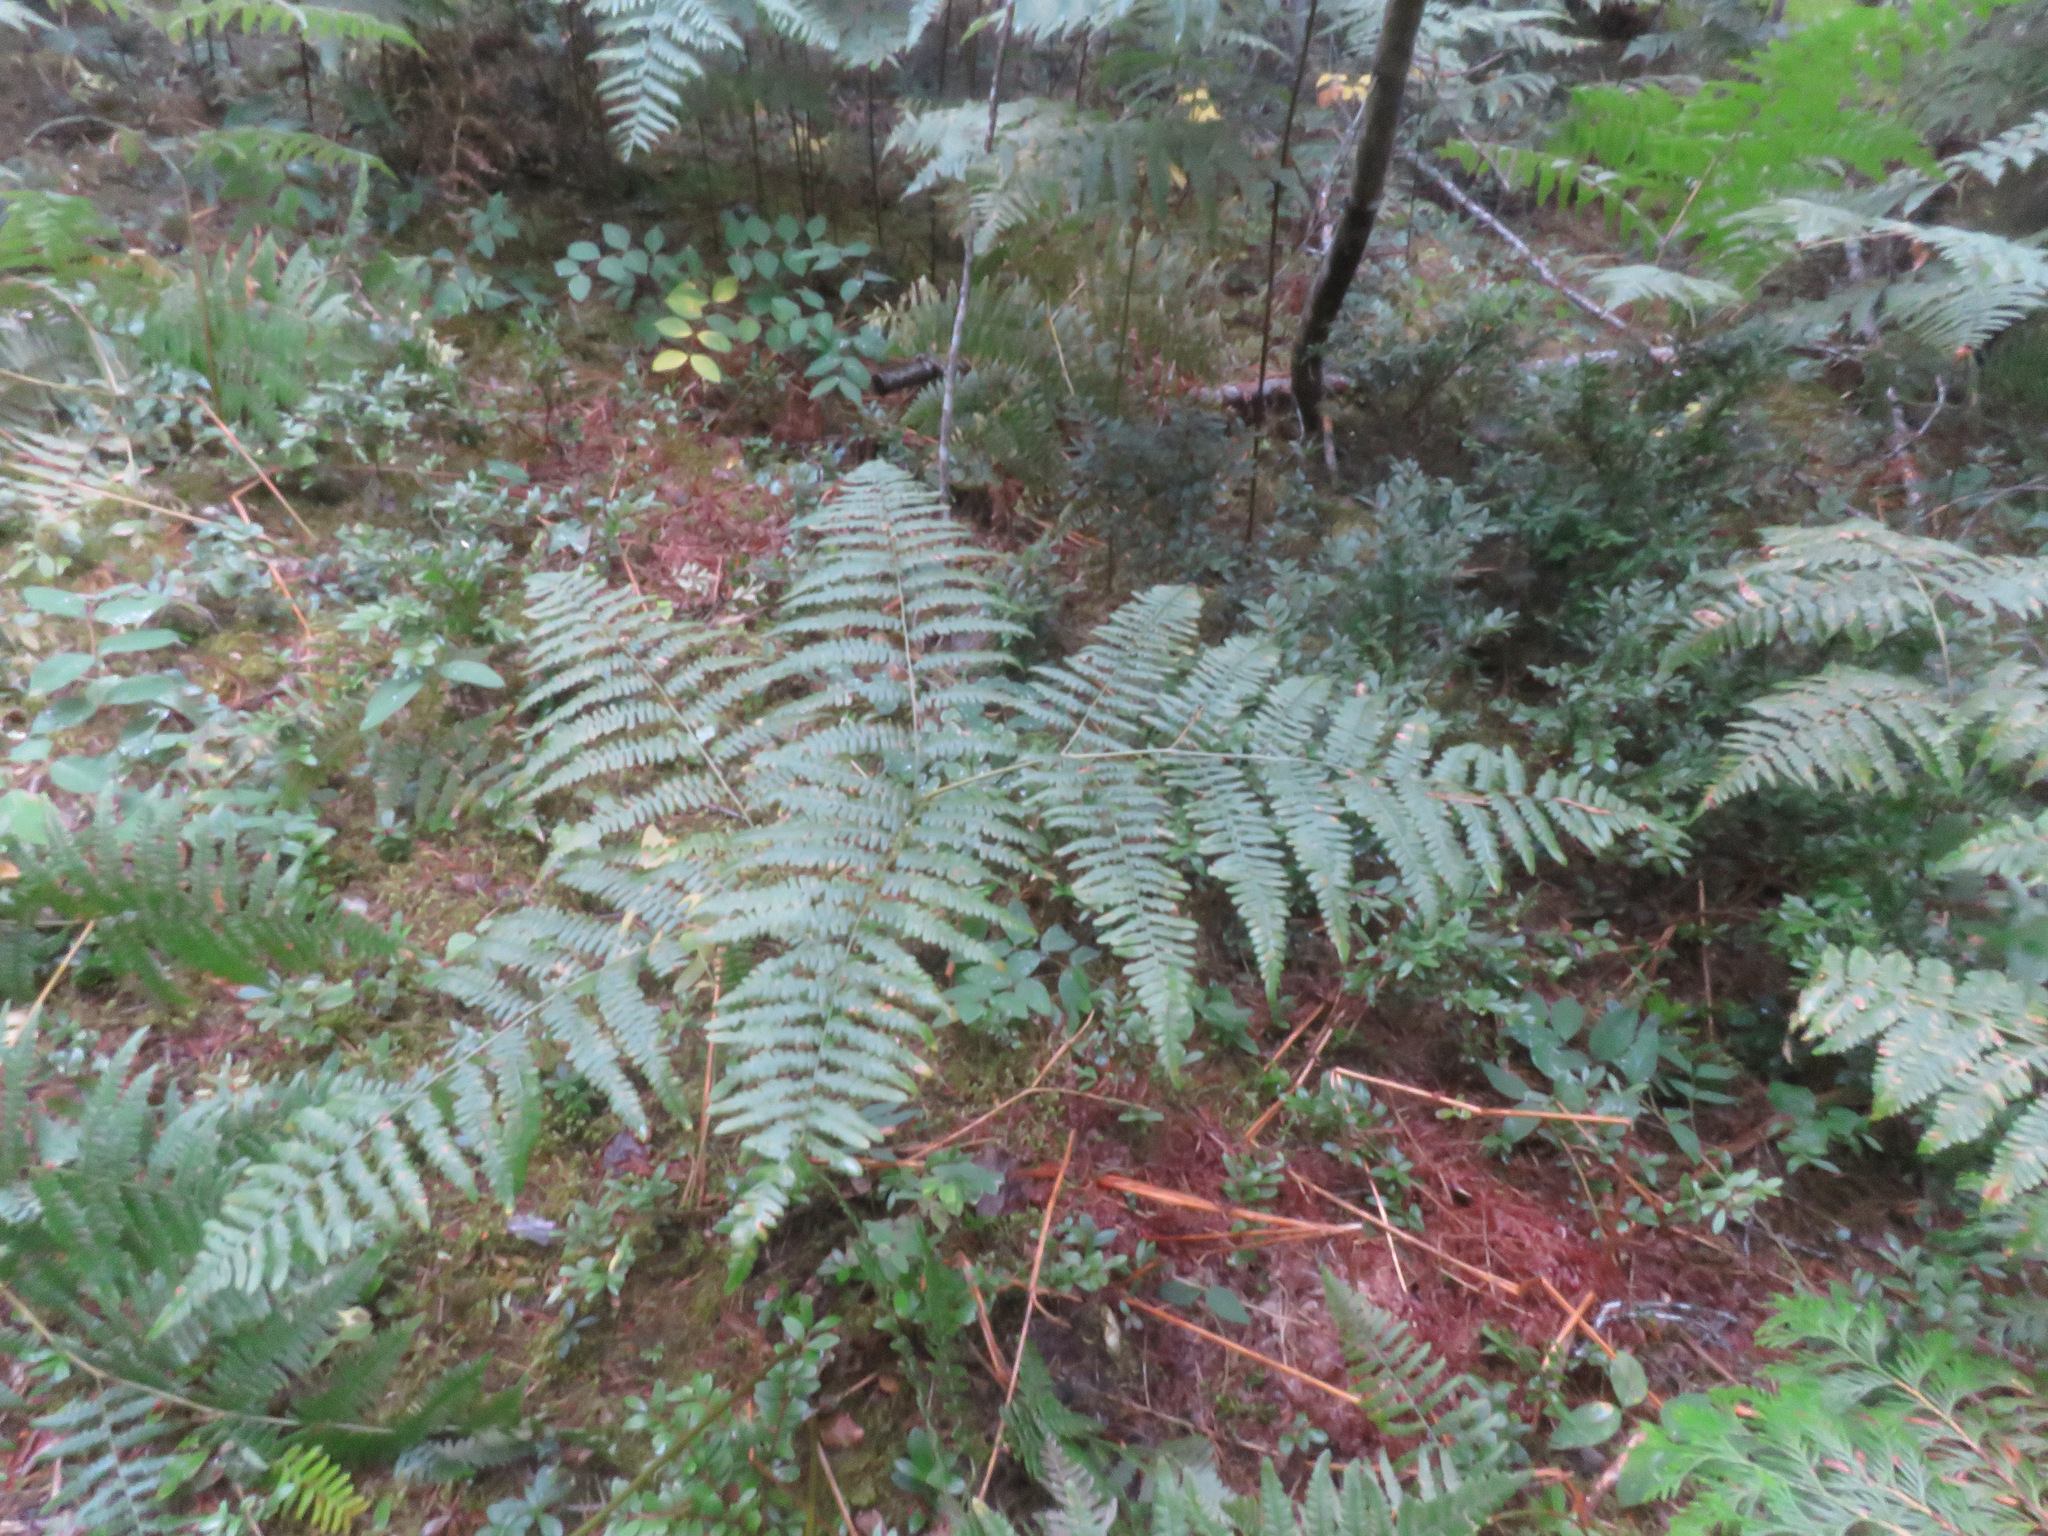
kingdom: Plantae
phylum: Tracheophyta
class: Polypodiopsida
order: Polypodiales
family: Dennstaedtiaceae
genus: Pteridium
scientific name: Pteridium aquilinum
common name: Bracken
